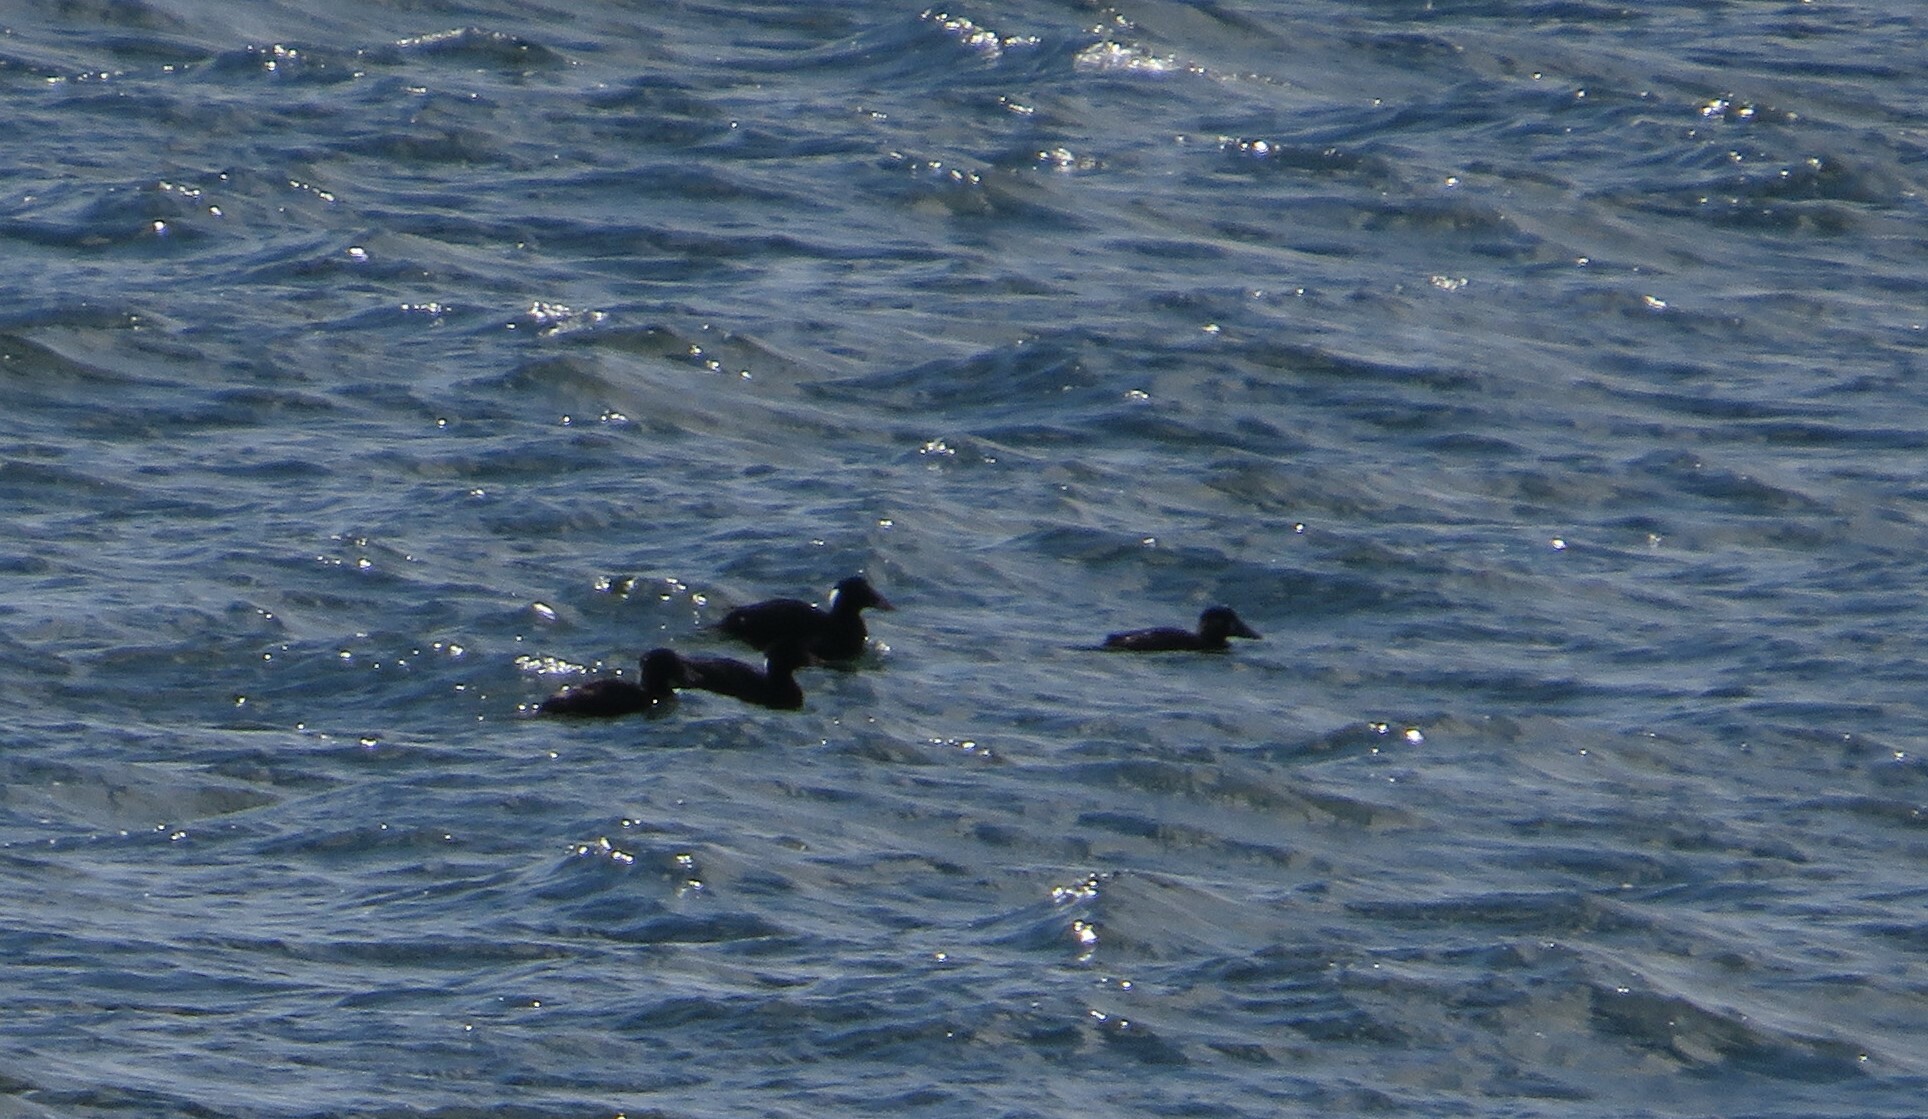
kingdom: Animalia
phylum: Chordata
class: Aves
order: Anseriformes
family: Anatidae
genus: Melanitta
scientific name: Melanitta perspicillata
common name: Surf scoter
